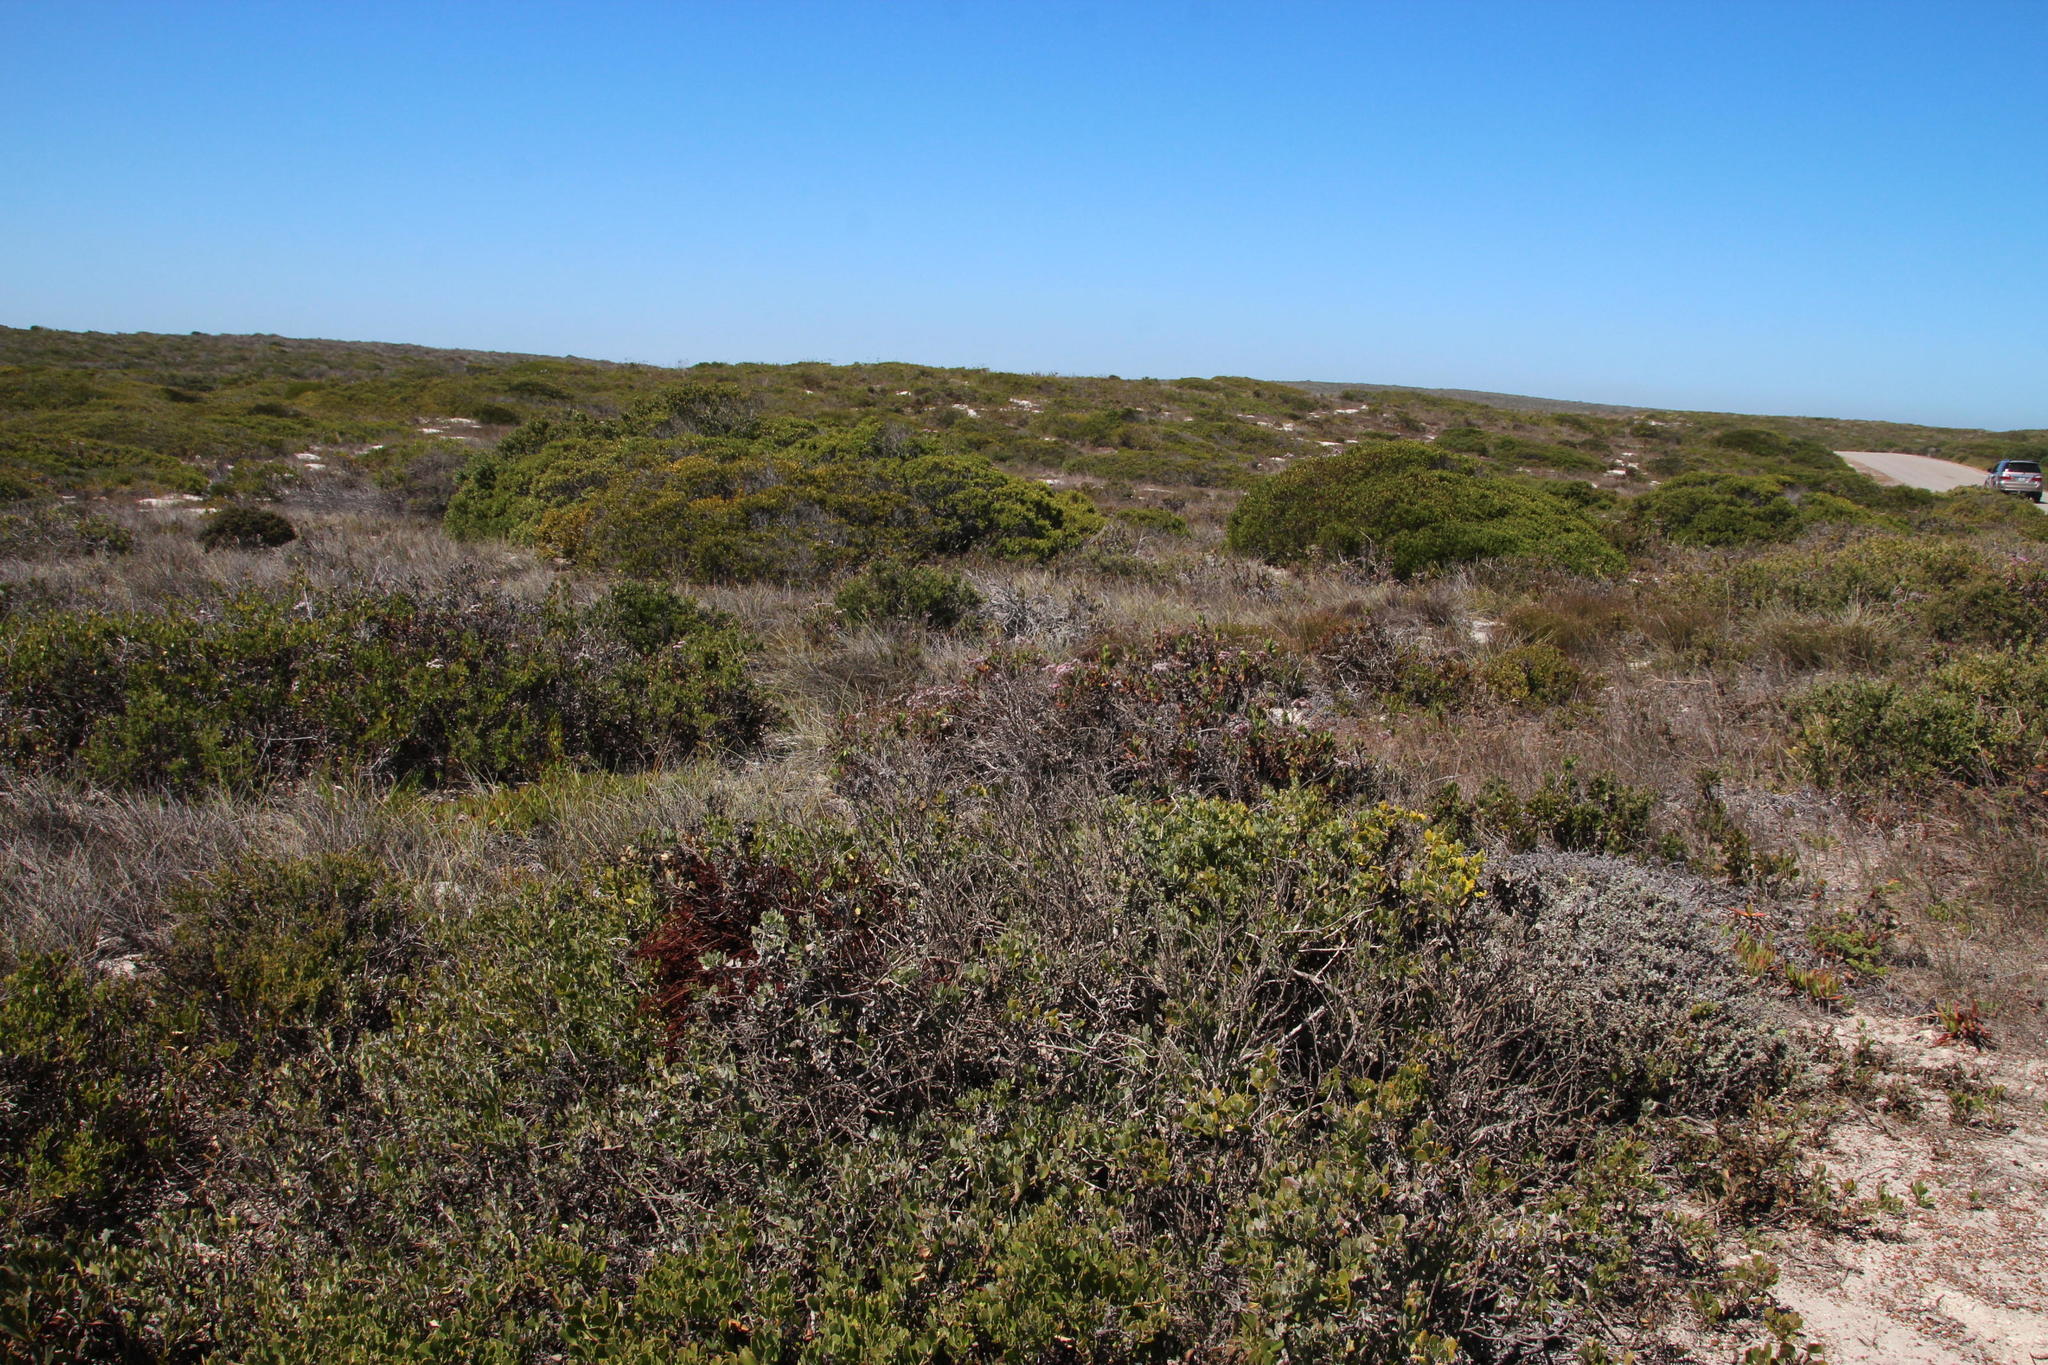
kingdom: Plantae
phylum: Tracheophyta
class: Magnoliopsida
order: Caryophyllales
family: Plumbaginaceae
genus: Limonium
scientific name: Limonium peregrinum
